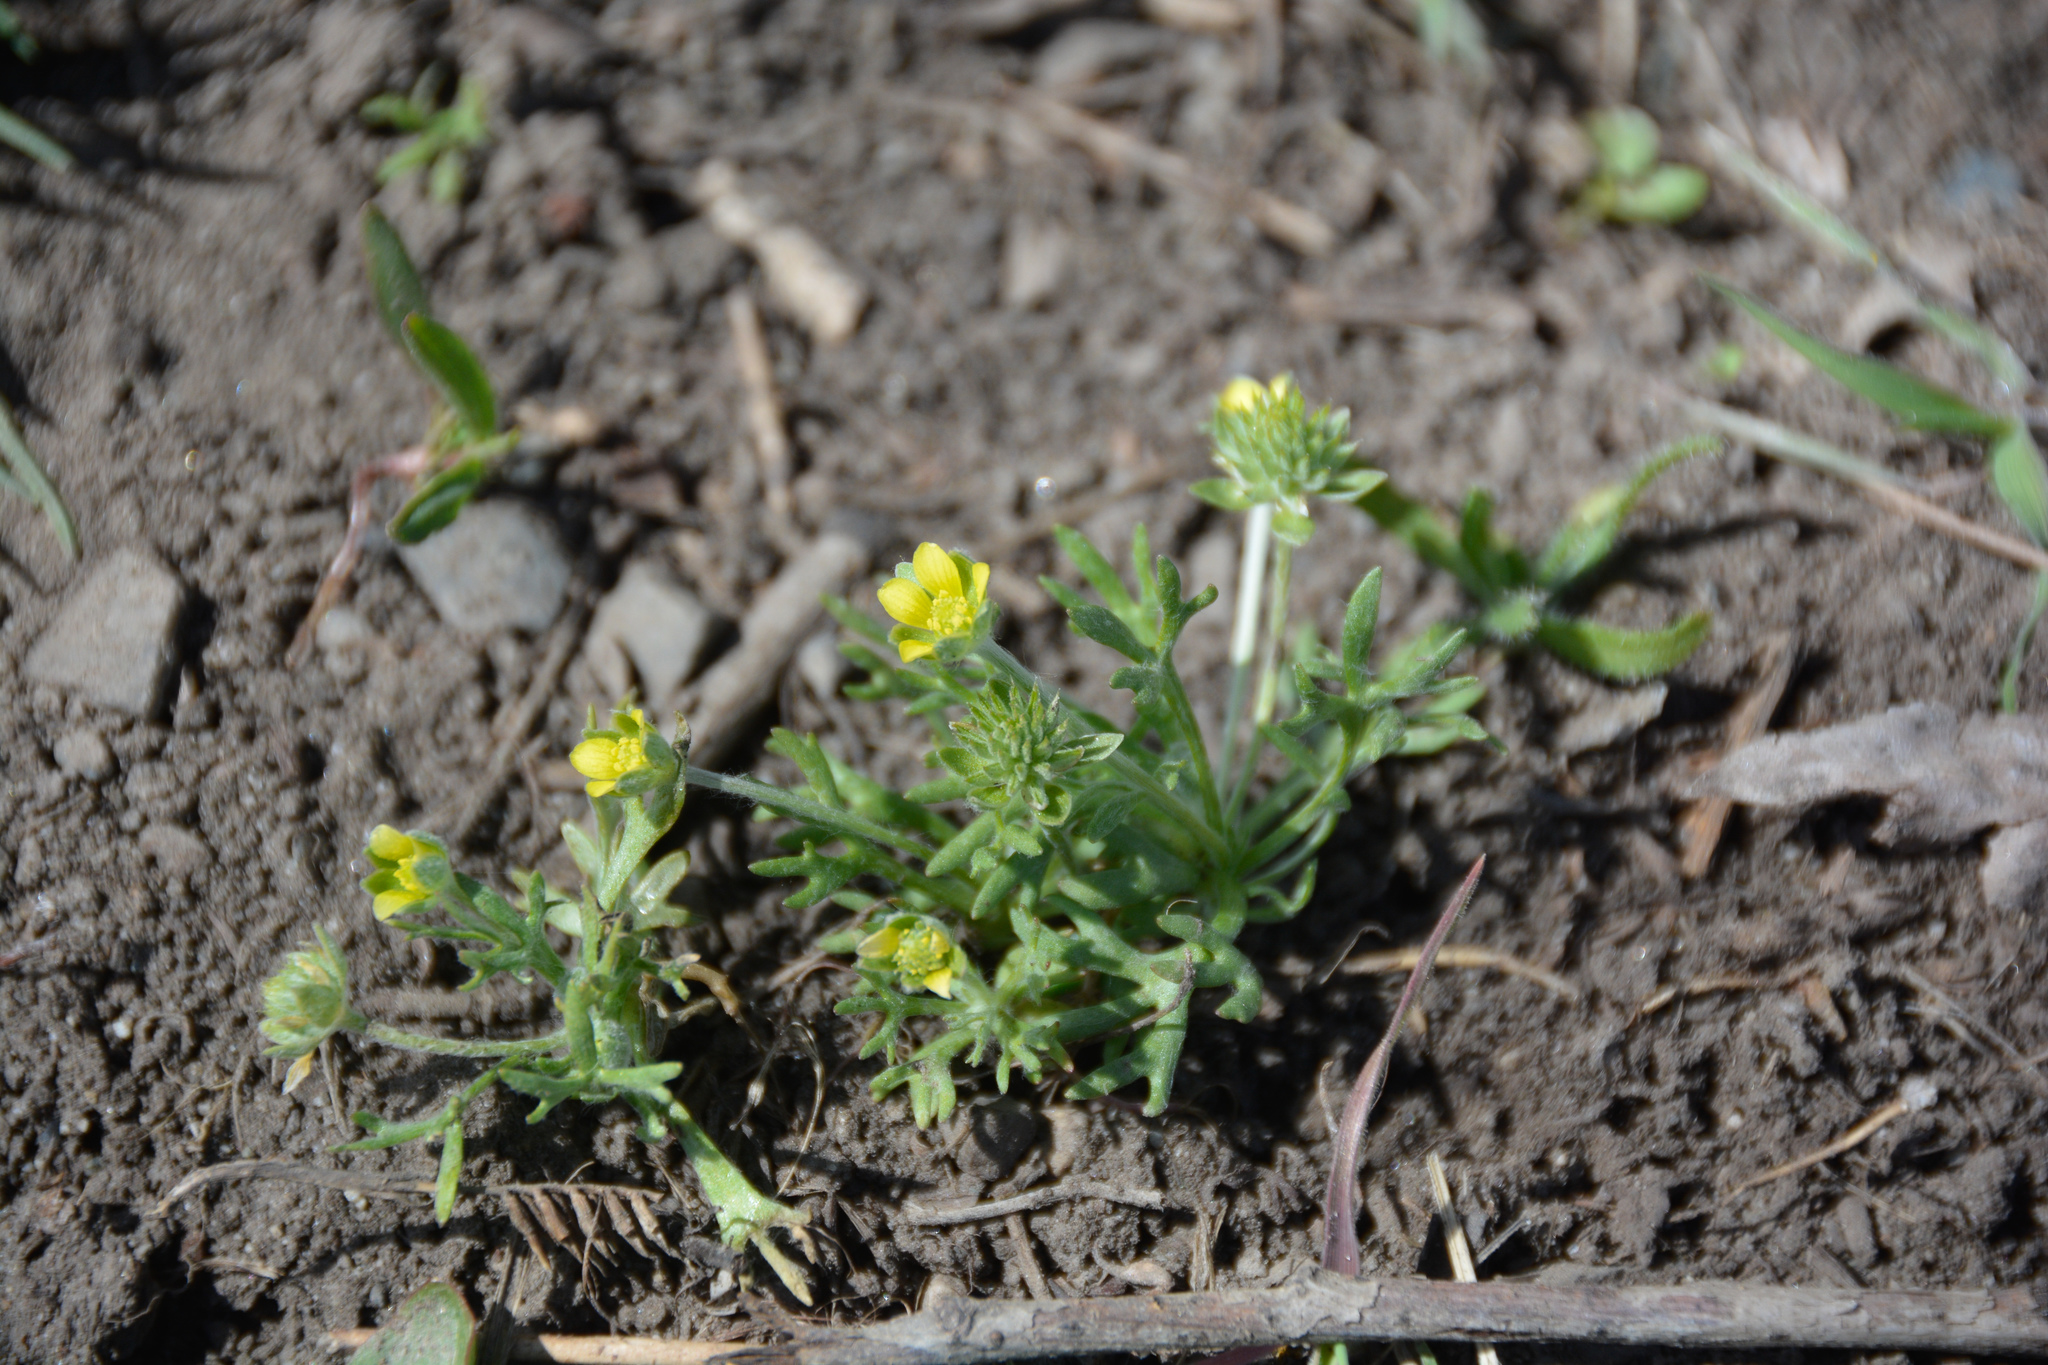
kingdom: Plantae
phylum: Tracheophyta
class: Magnoliopsida
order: Ranunculales
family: Ranunculaceae
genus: Ceratocephala
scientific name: Ceratocephala orthoceras
